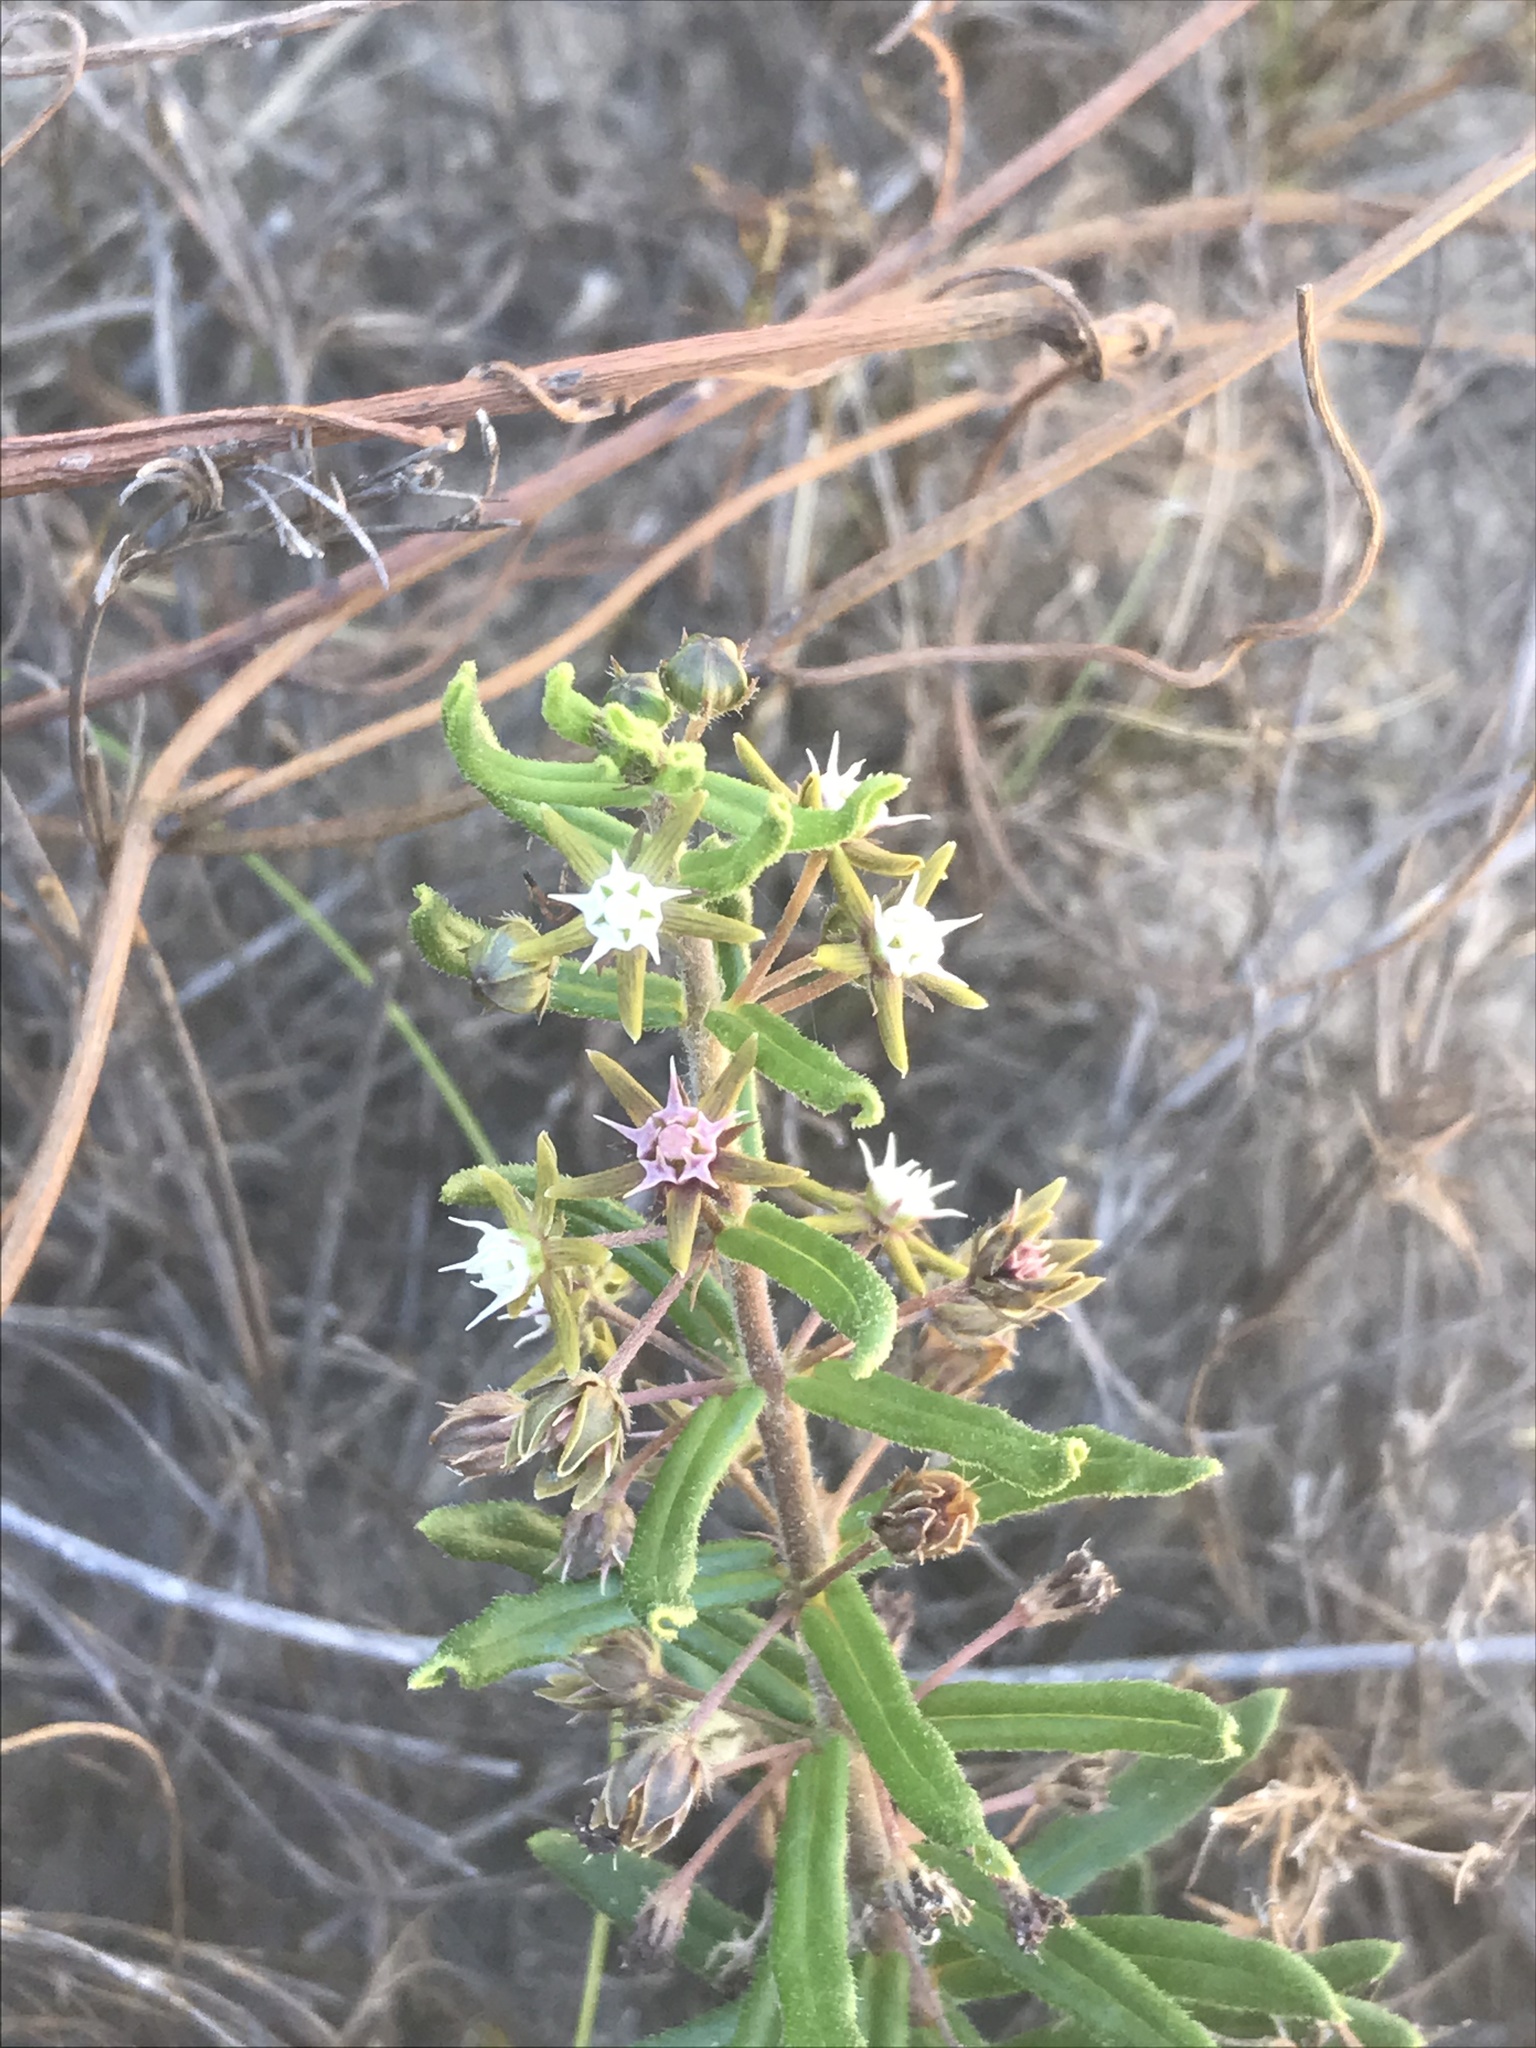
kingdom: Plantae
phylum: Tracheophyta
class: Magnoliopsida
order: Gentianales
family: Apocynaceae
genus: Aspidoglossum
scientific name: Aspidoglossum heterophyllum
